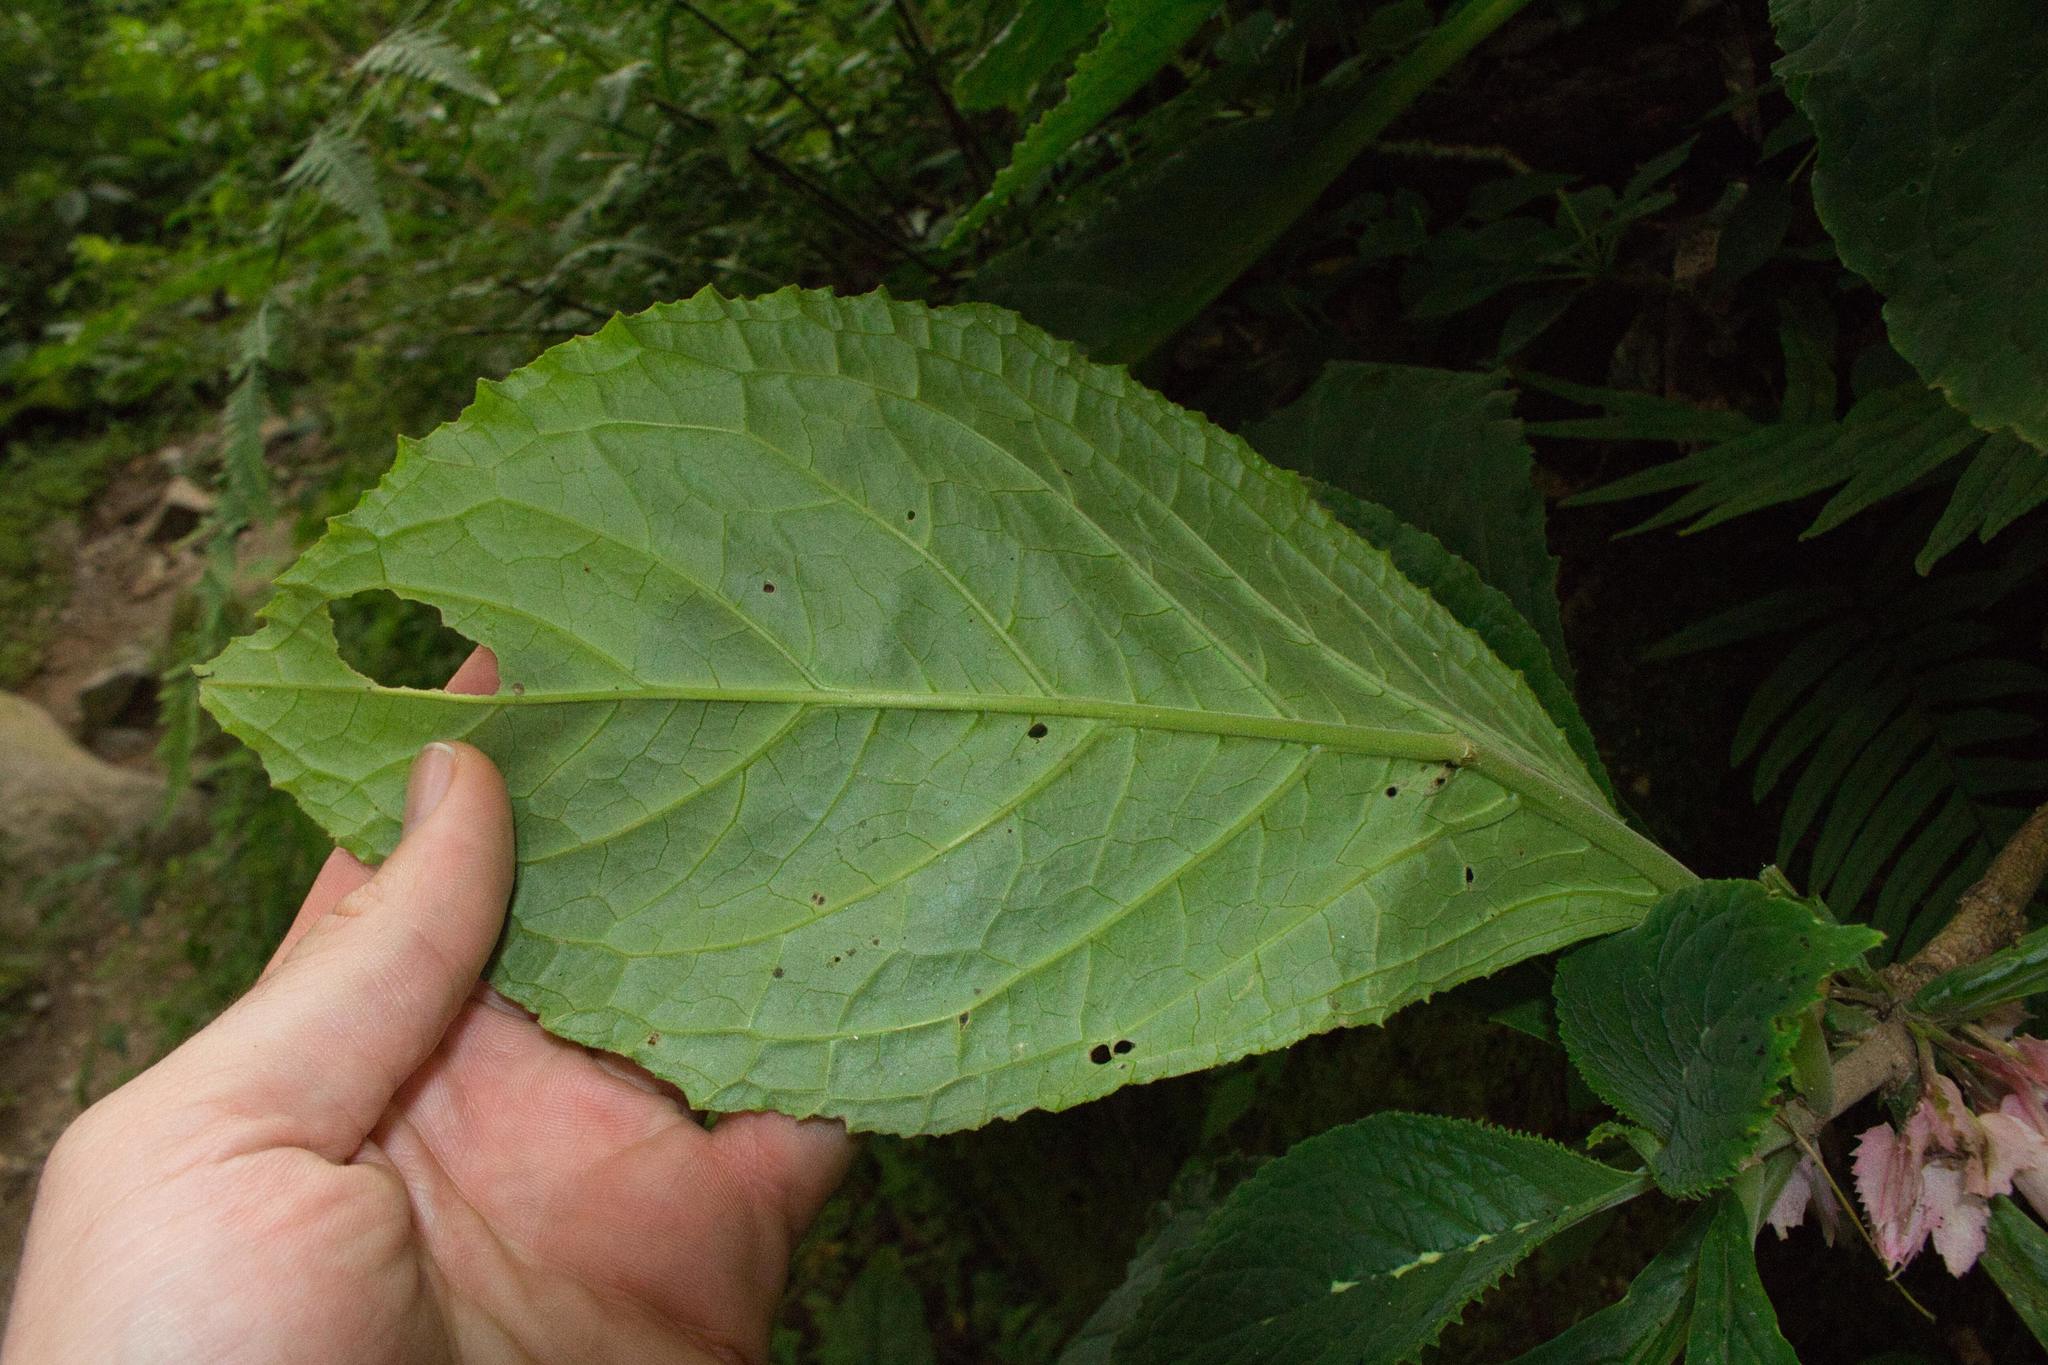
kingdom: Plantae
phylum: Tracheophyta
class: Magnoliopsida
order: Lamiales
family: Gesneriaceae
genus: Drymonia
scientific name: Drymonia parviflora
